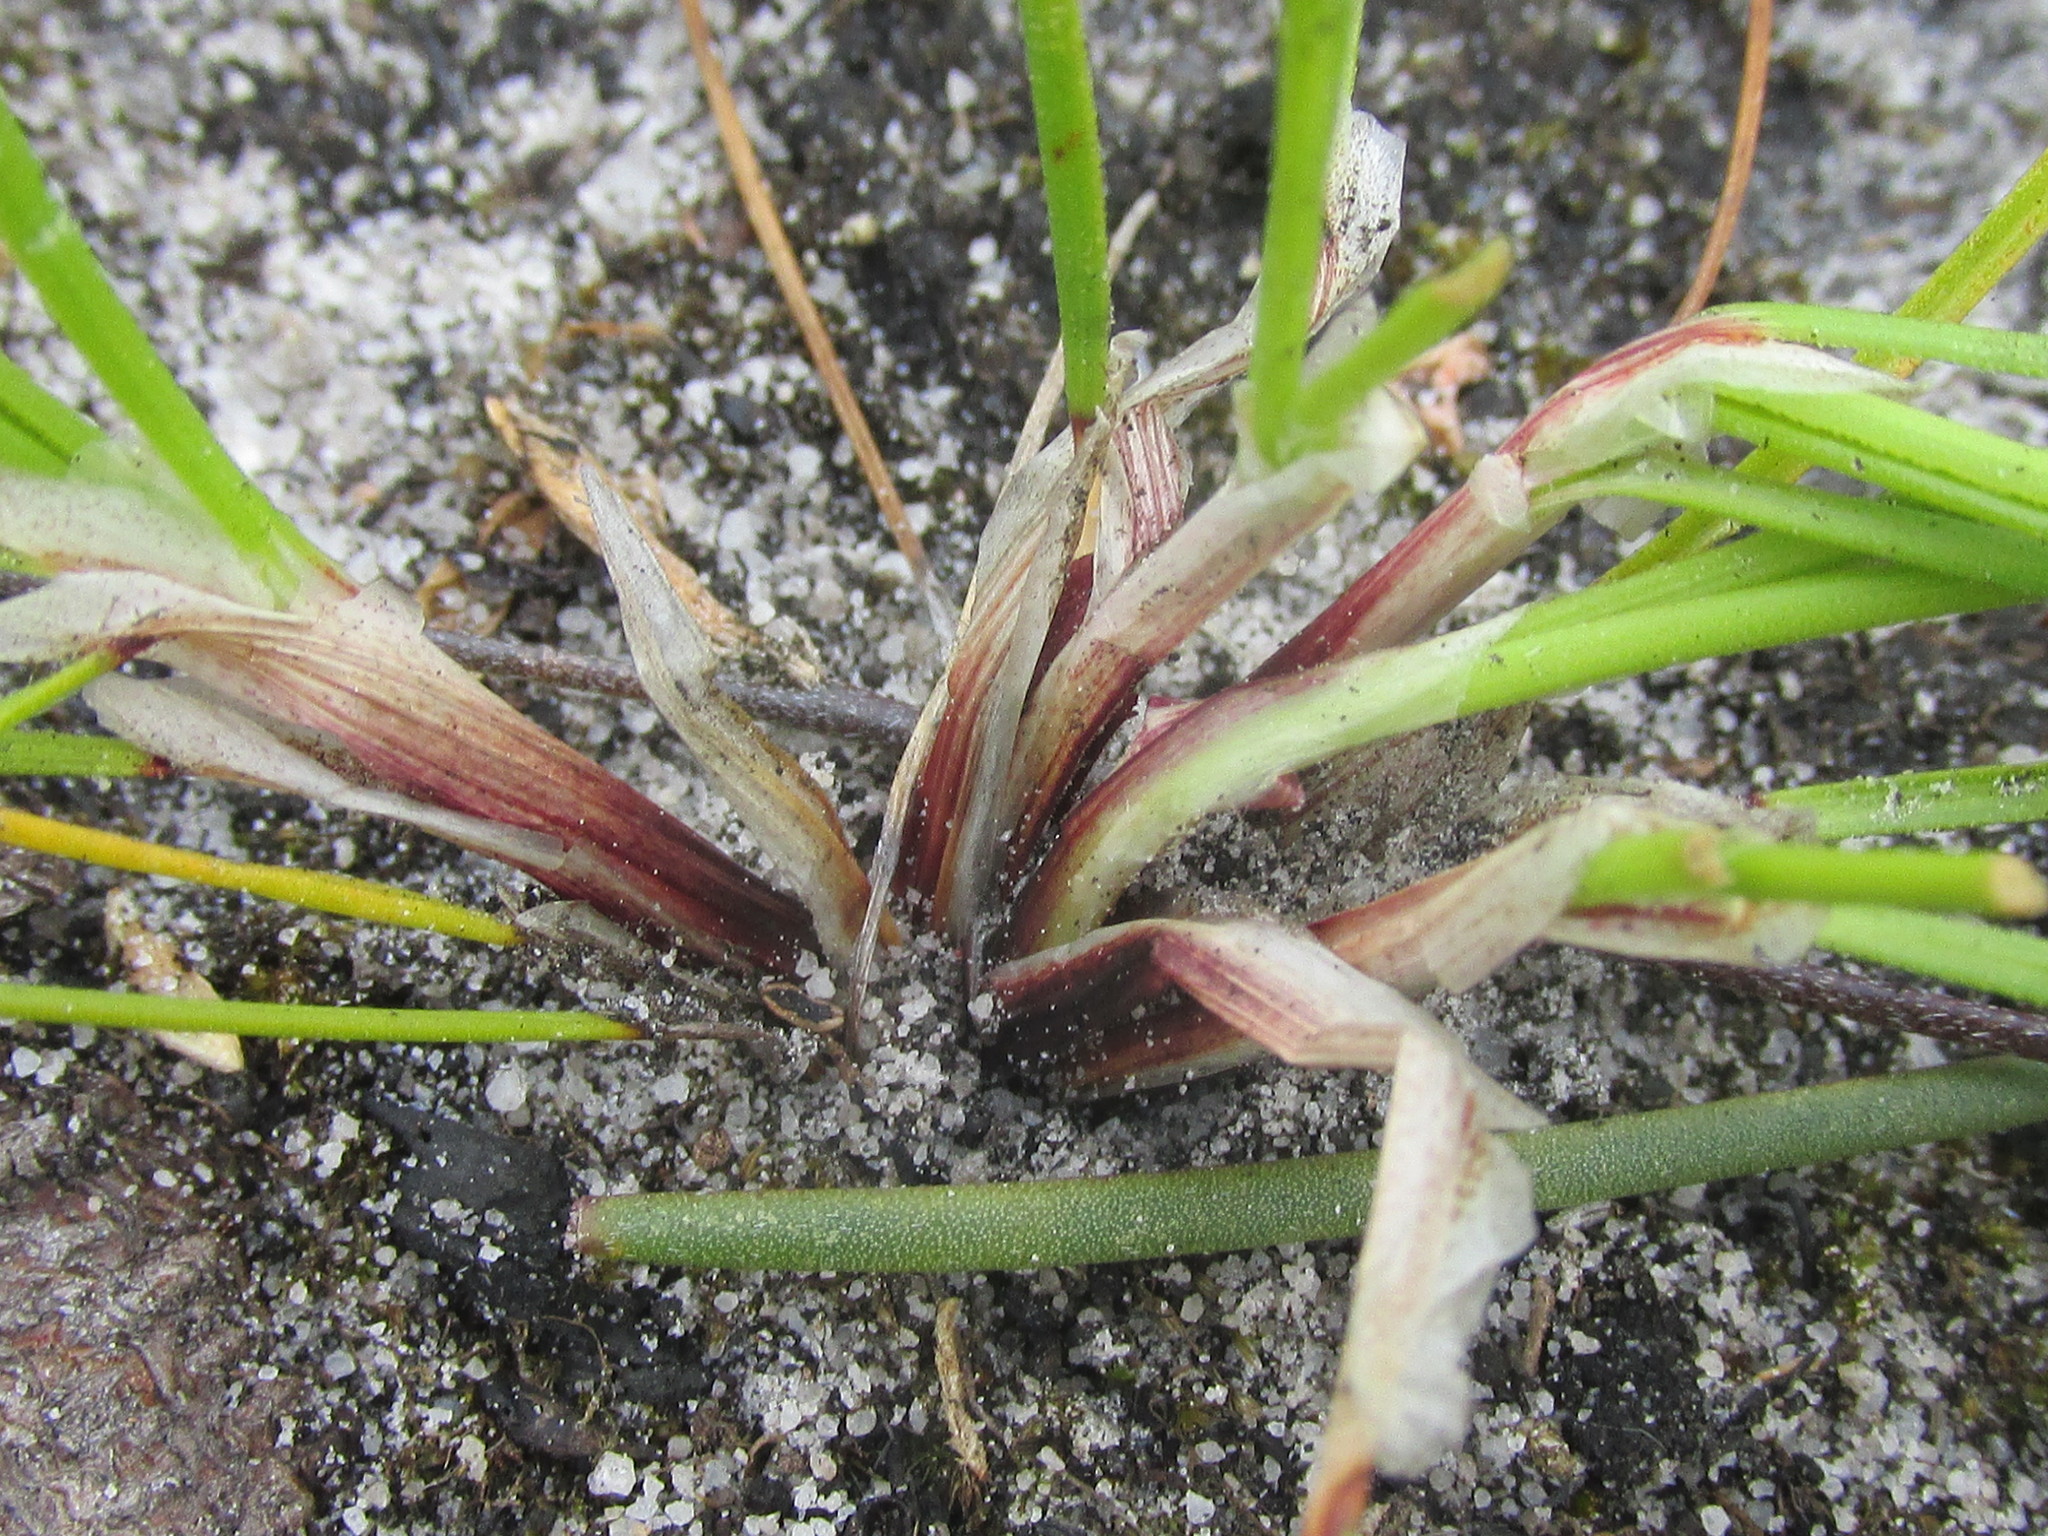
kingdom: Plantae
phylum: Tracheophyta
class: Liliopsida
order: Poales
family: Cyperaceae
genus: Schoenus
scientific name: Schoenus auritus
